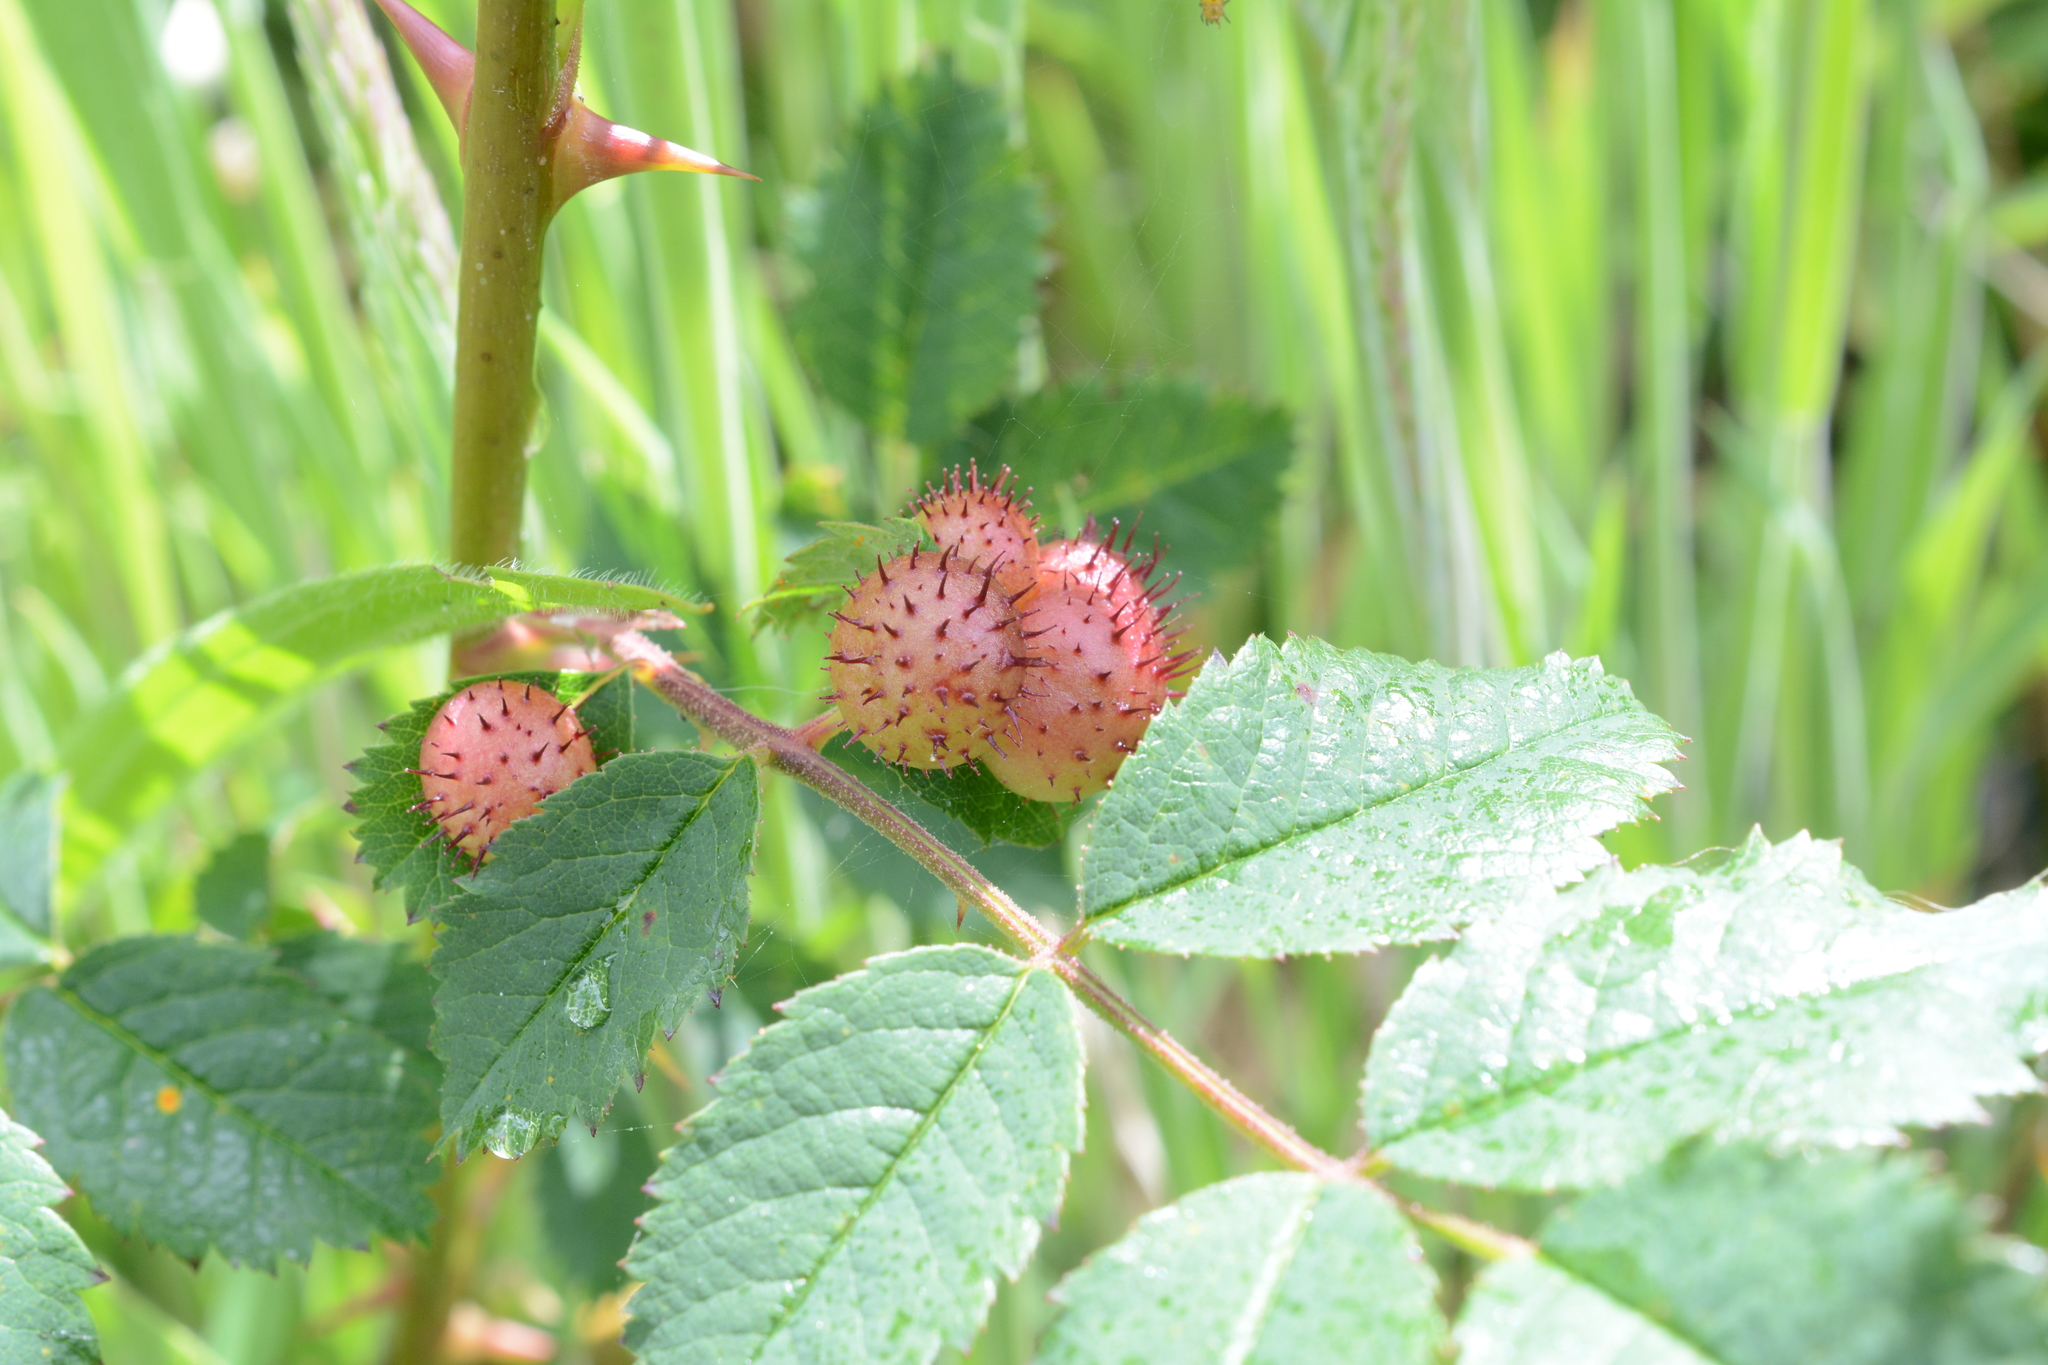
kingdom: Animalia
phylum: Arthropoda
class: Insecta
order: Hymenoptera
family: Cynipidae
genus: Diplolepis
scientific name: Diplolepis polita
